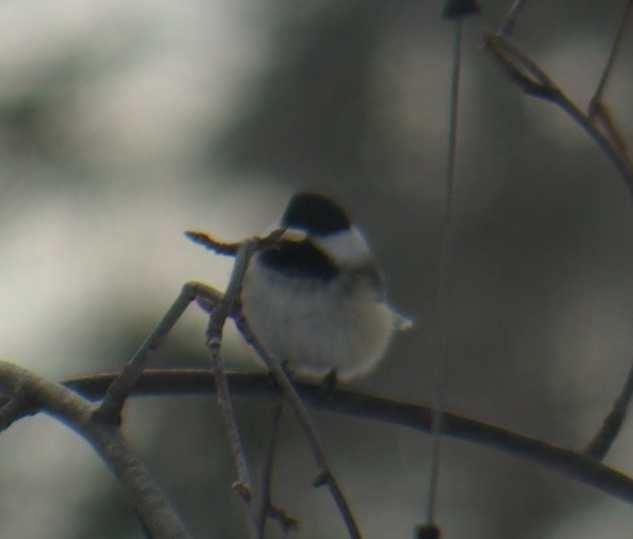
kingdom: Animalia
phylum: Chordata
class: Aves
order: Passeriformes
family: Paridae
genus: Poecile
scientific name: Poecile atricapillus
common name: Black-capped chickadee
